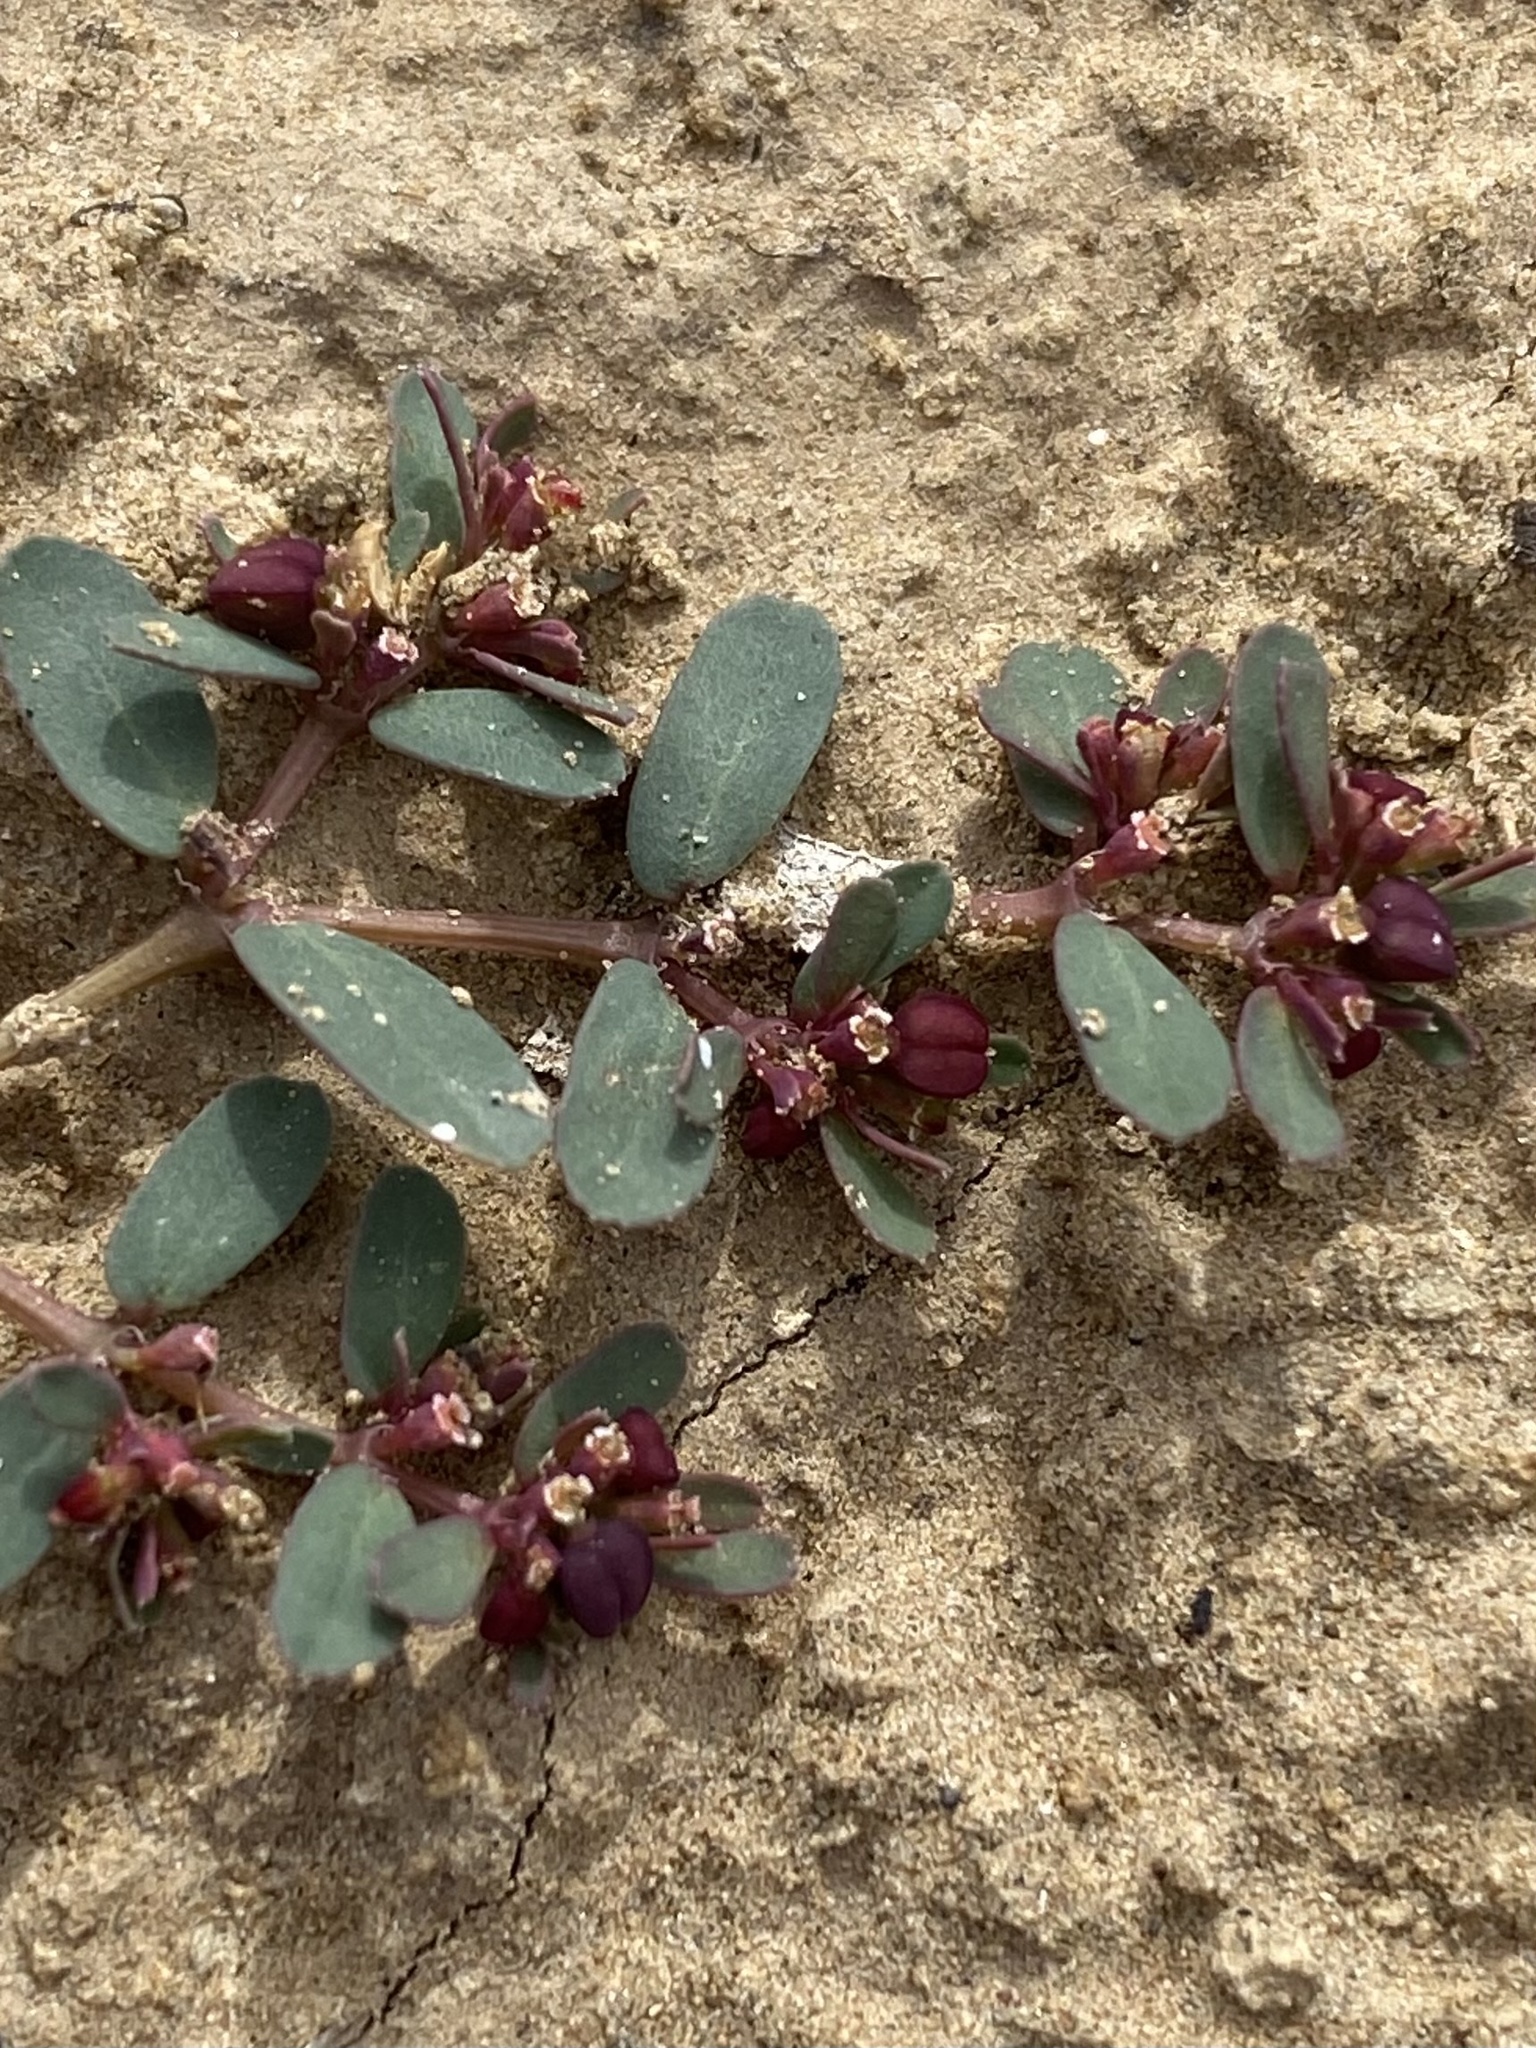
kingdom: Plantae
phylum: Tracheophyta
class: Magnoliopsida
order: Malpighiales
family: Euphorbiaceae
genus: Euphorbia
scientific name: Euphorbia serpillifolia
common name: Thyme-leaf spurge
